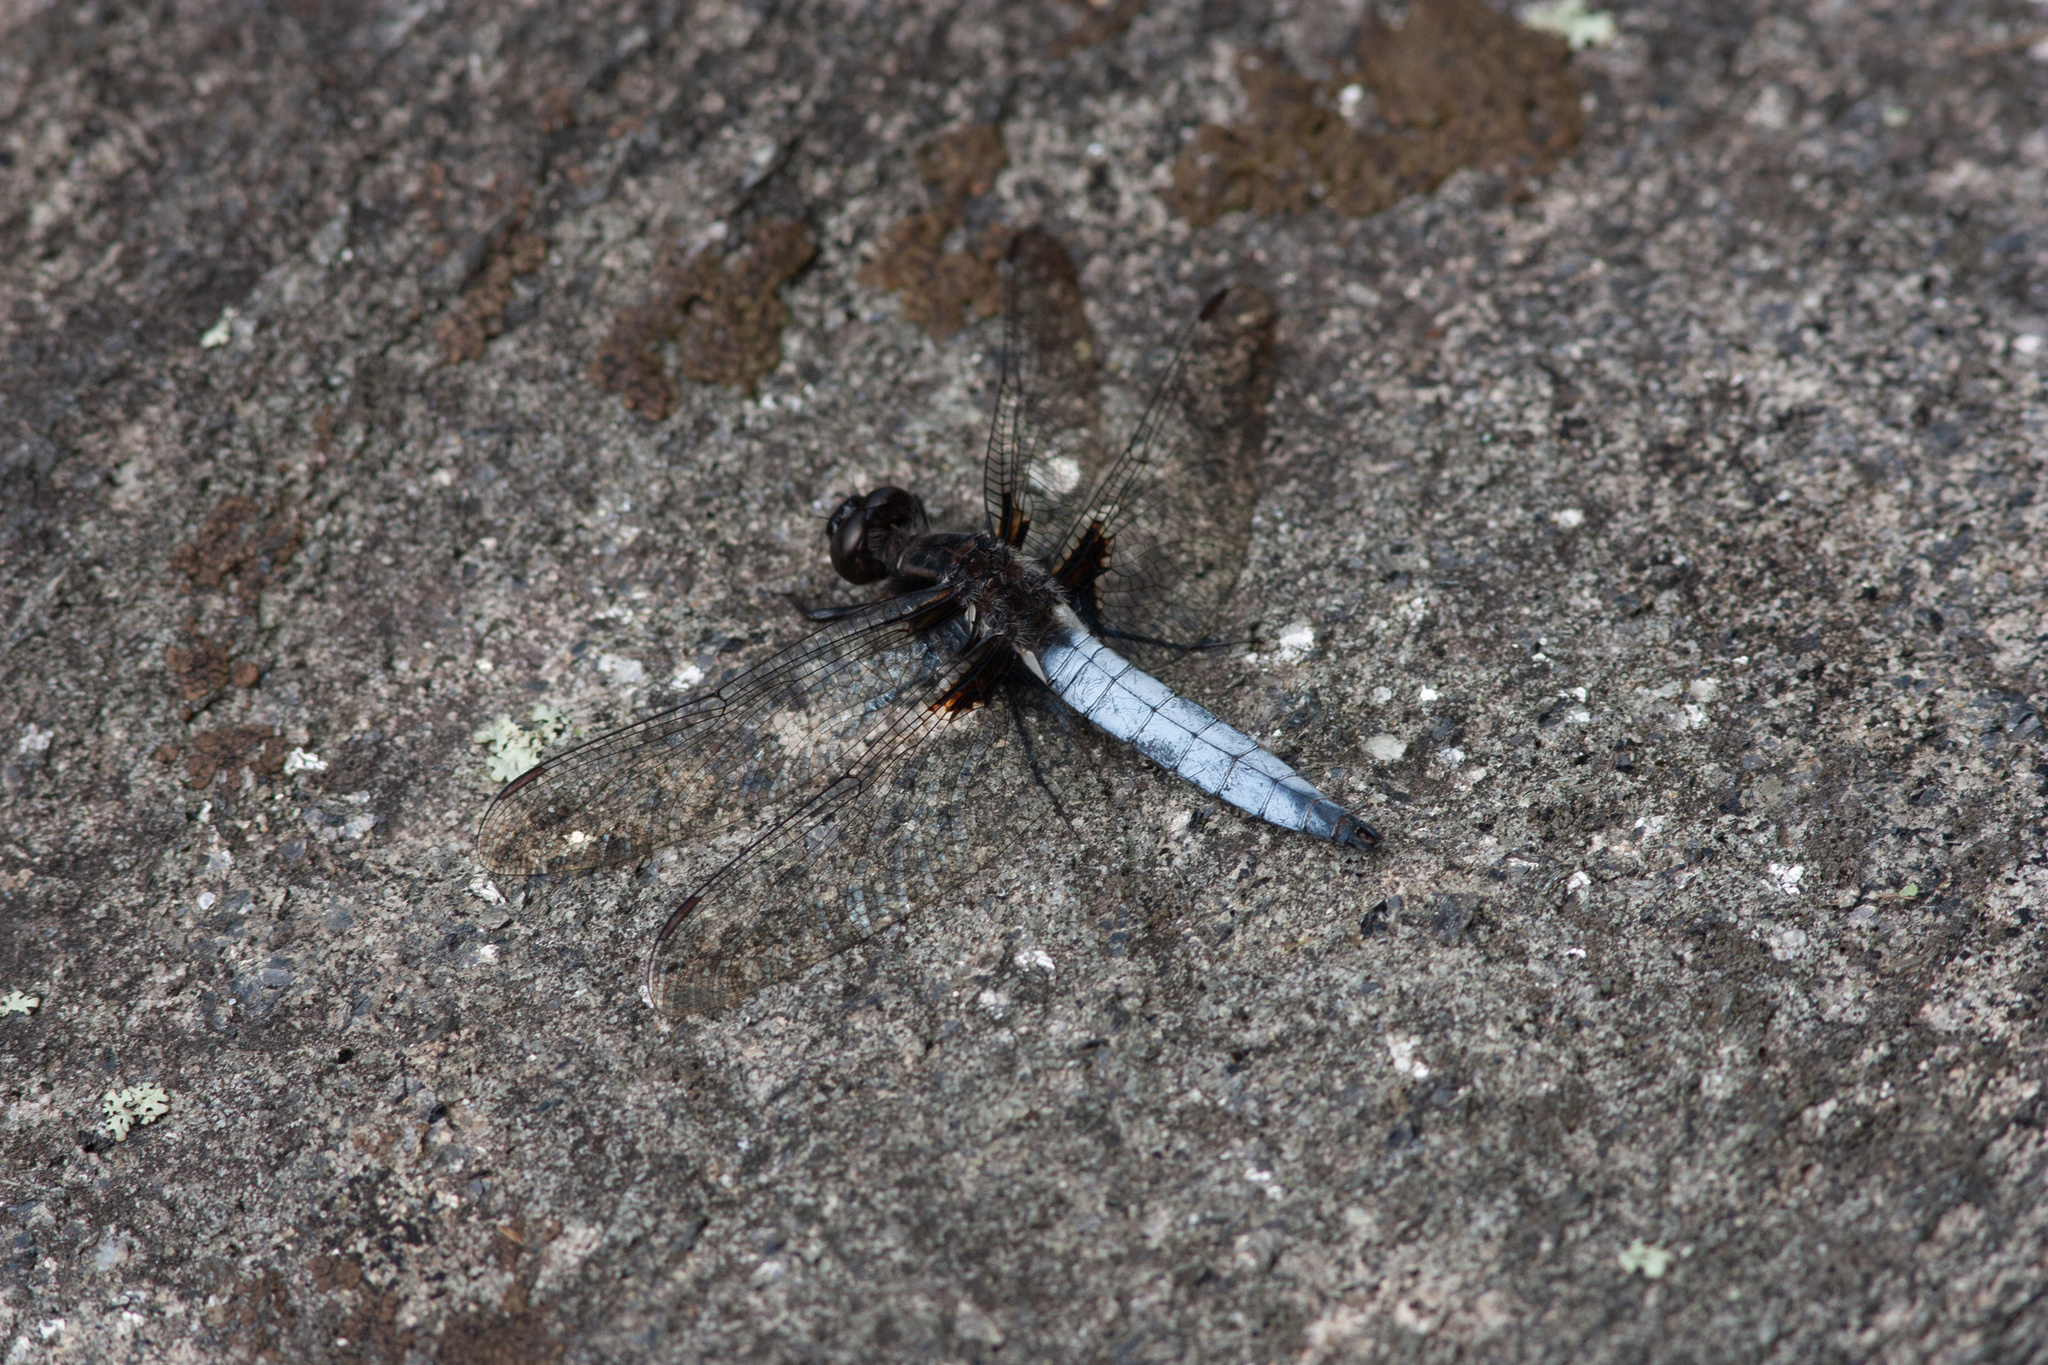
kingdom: Animalia
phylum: Arthropoda
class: Insecta
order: Odonata
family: Libellulidae
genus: Ladona
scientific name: Ladona exusta
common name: Libellule embrasée
